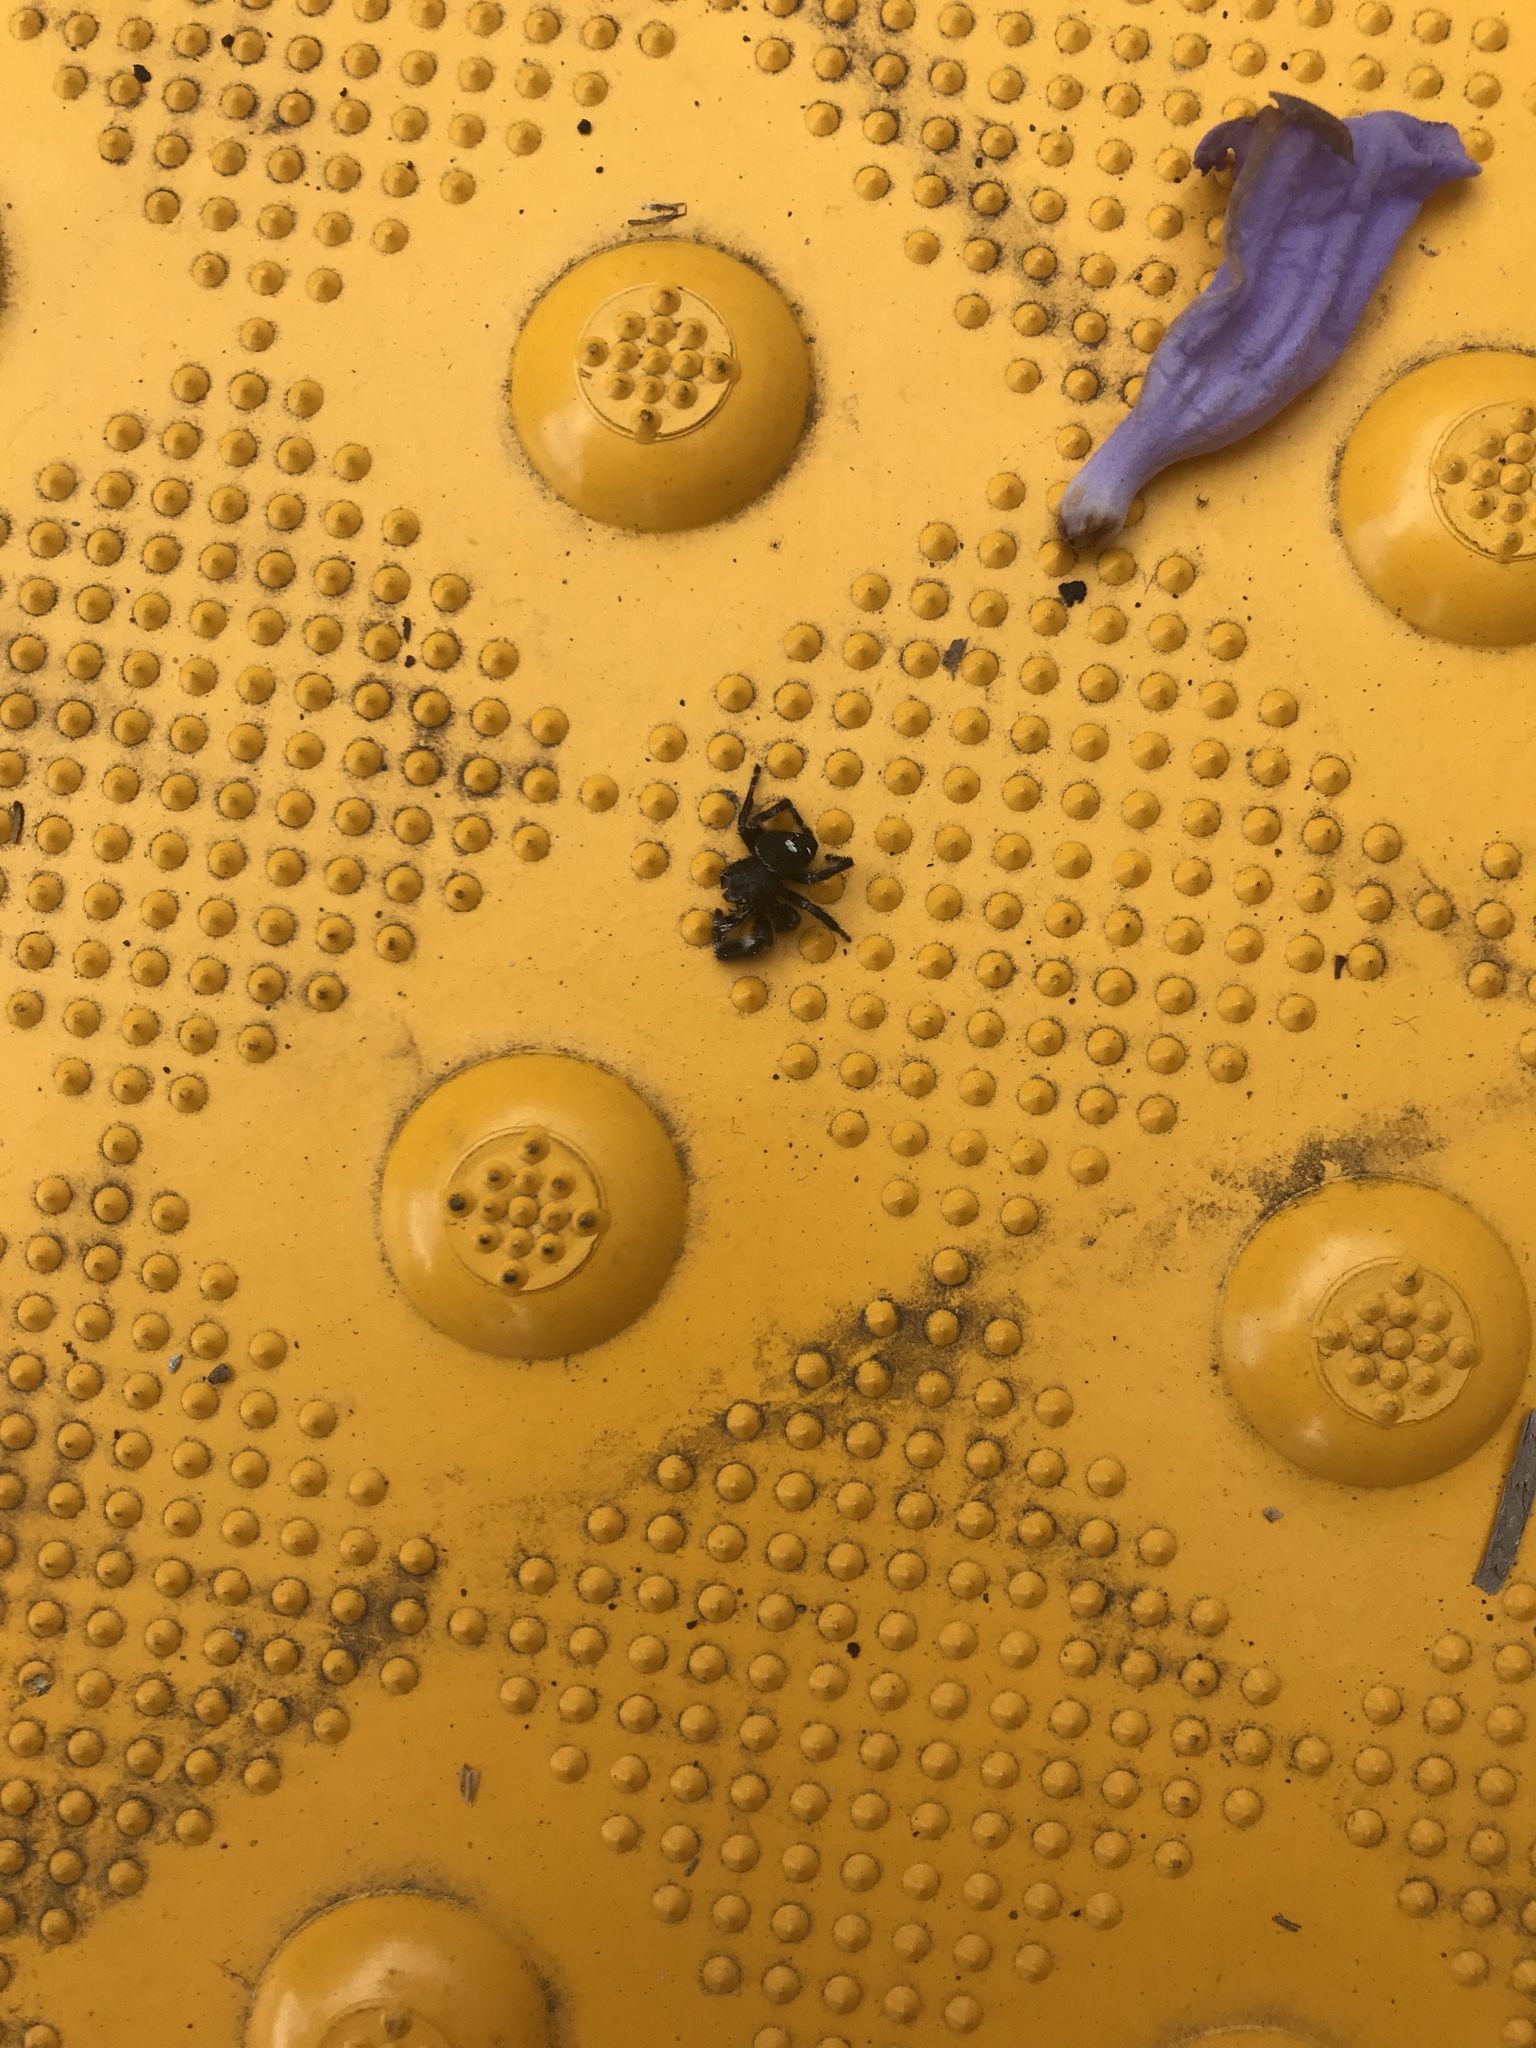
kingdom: Animalia
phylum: Arthropoda
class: Arachnida
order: Araneae
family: Salticidae
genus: Phidippus
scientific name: Phidippus audax
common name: Bold jumper
